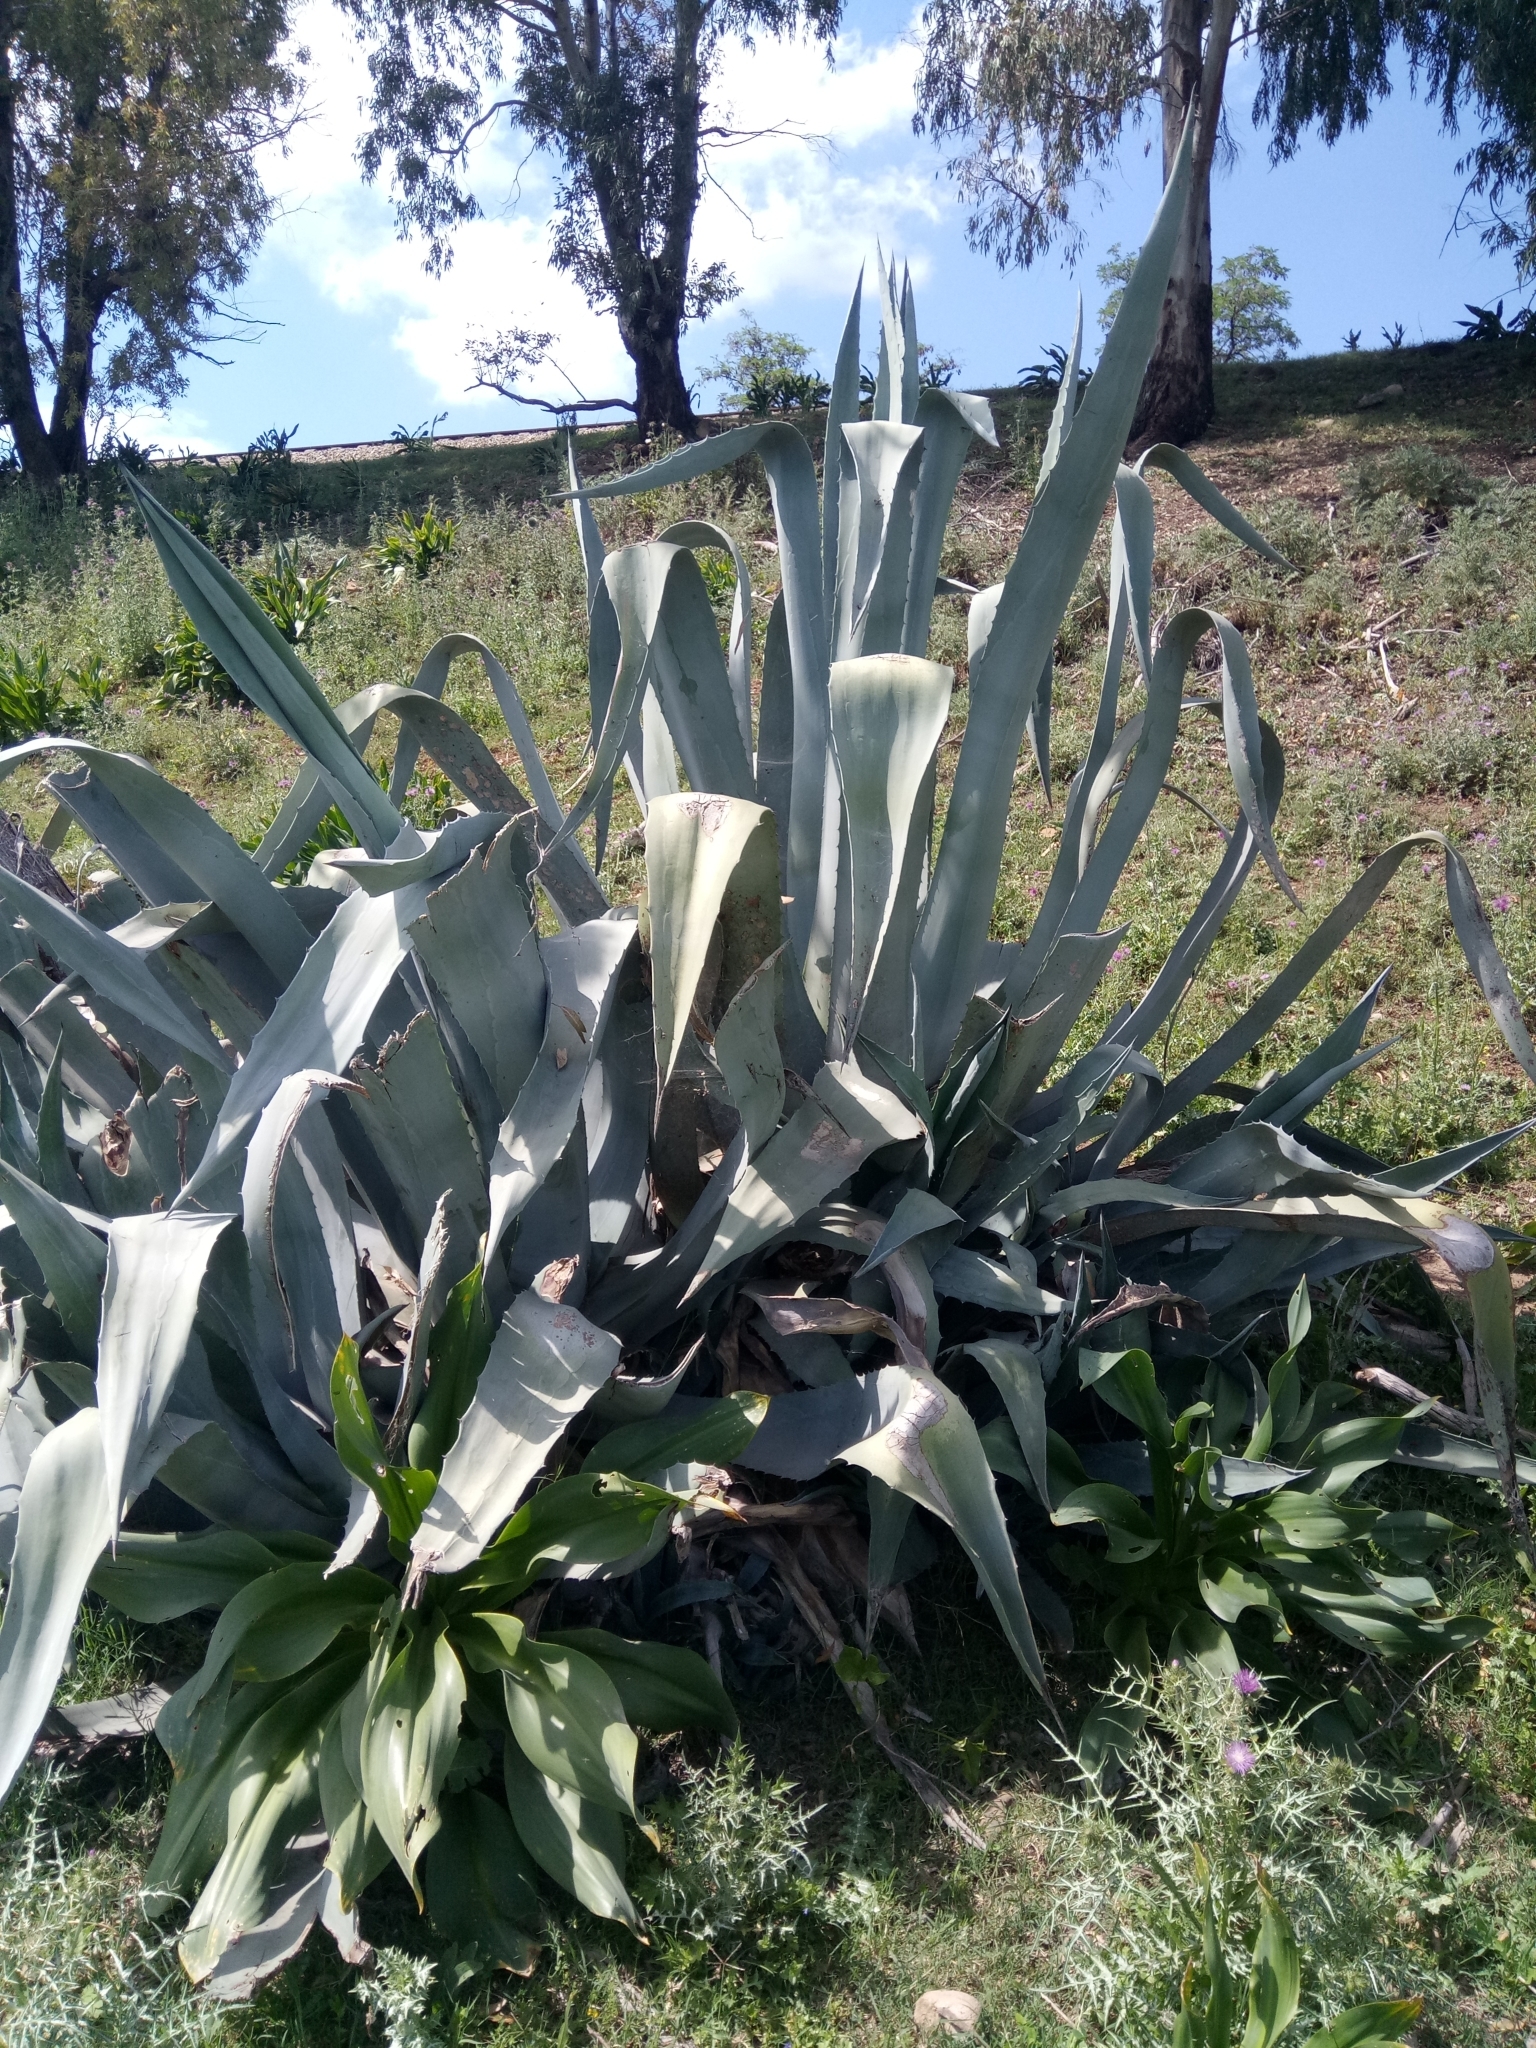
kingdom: Plantae
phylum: Tracheophyta
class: Liliopsida
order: Asparagales
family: Asparagaceae
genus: Agave
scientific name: Agave americana
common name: Centuryplant
